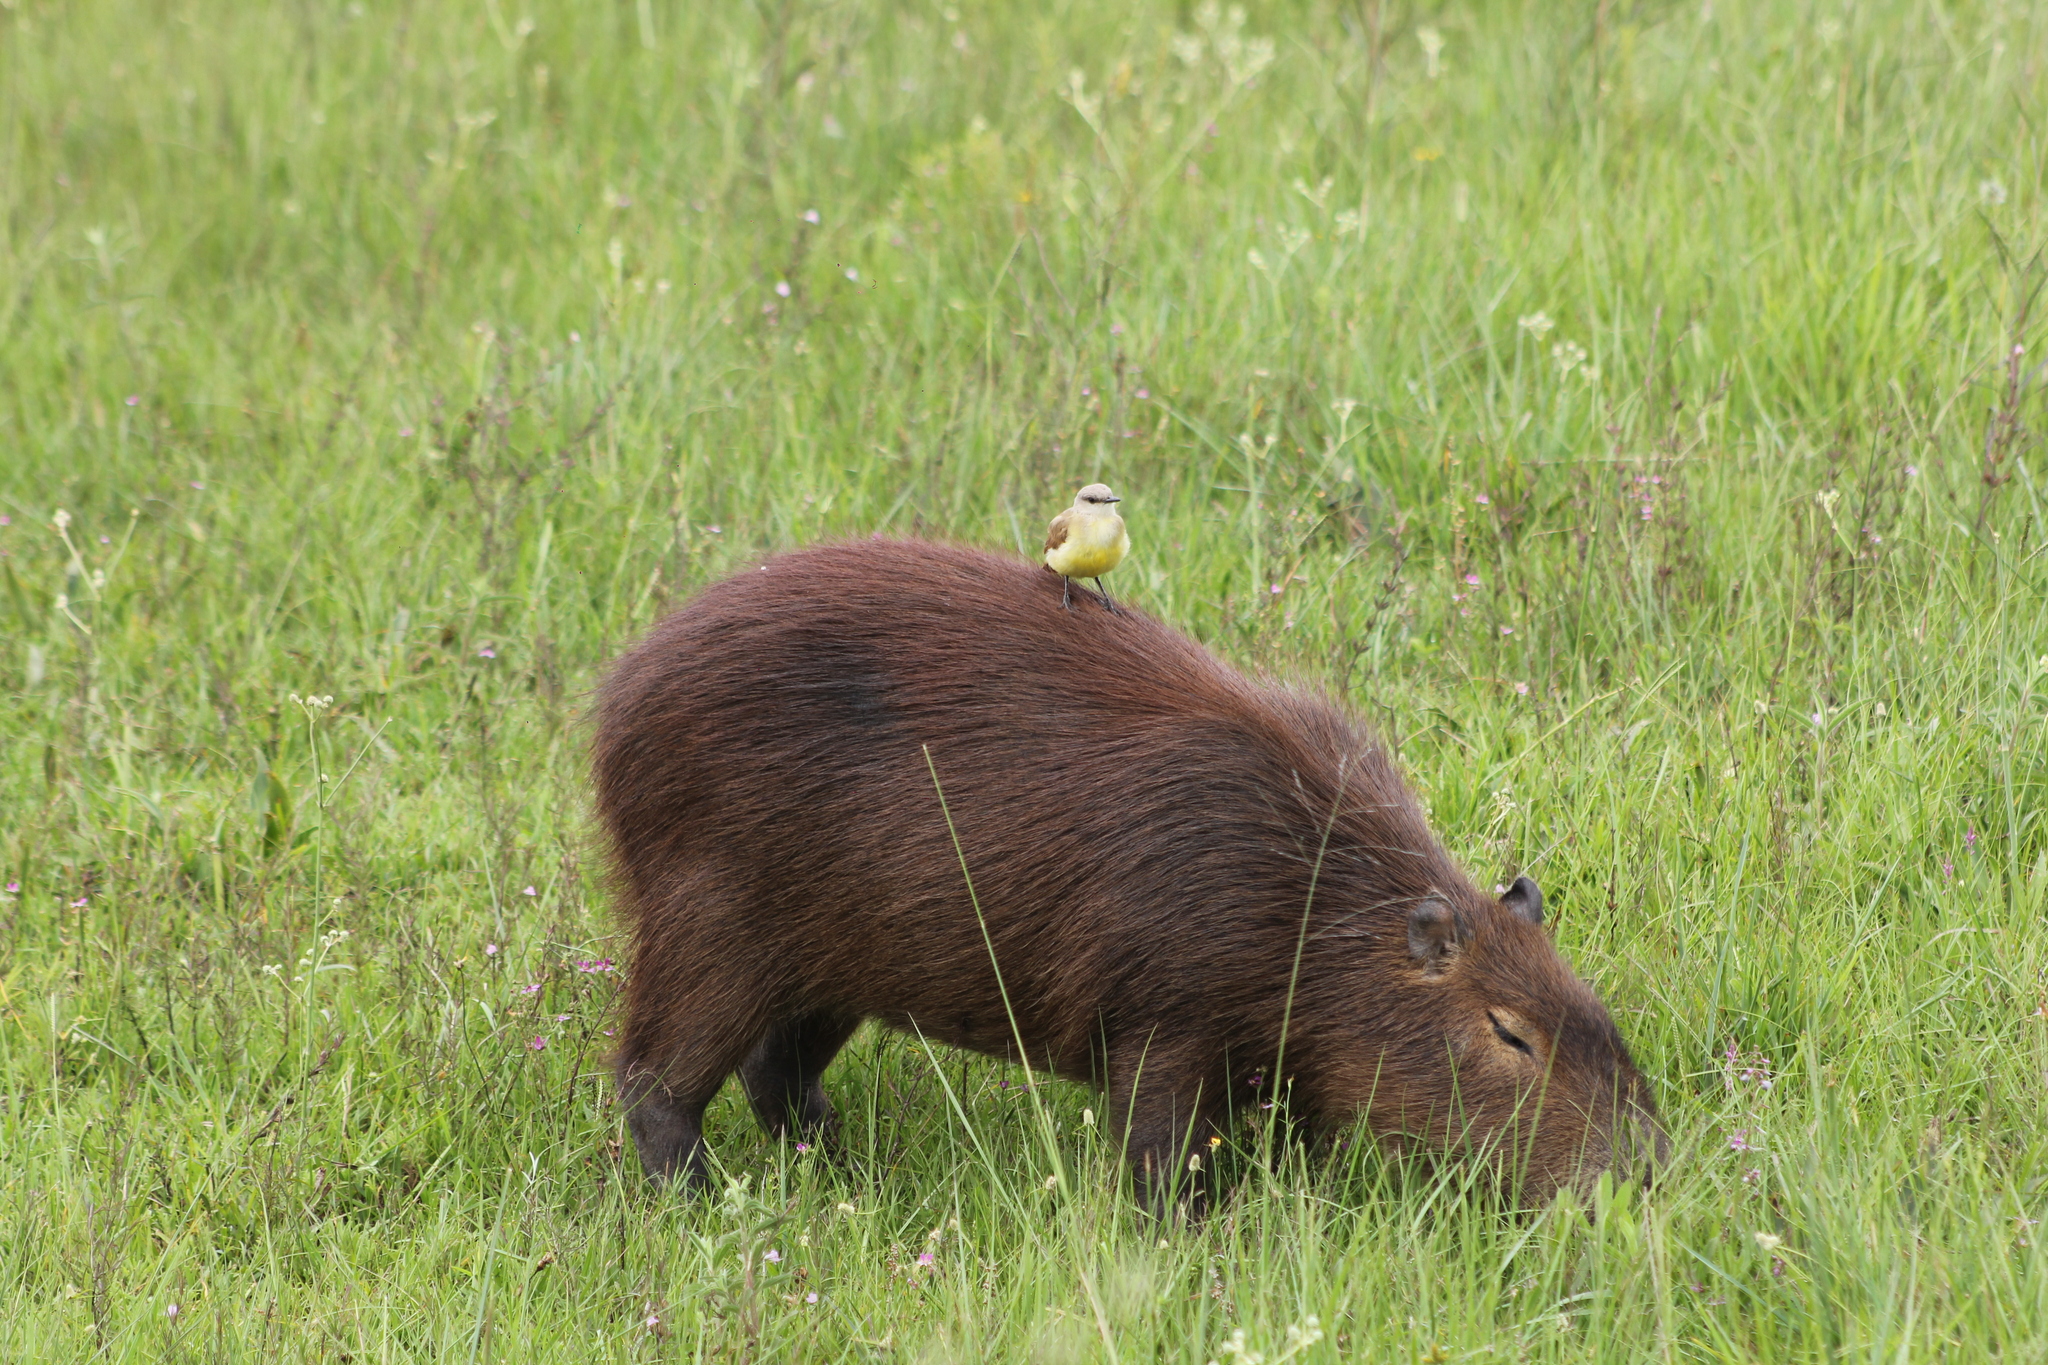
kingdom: Animalia
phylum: Chordata
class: Aves
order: Passeriformes
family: Tyrannidae
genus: Machetornis
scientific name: Machetornis rixosa
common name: Cattle tyrant
